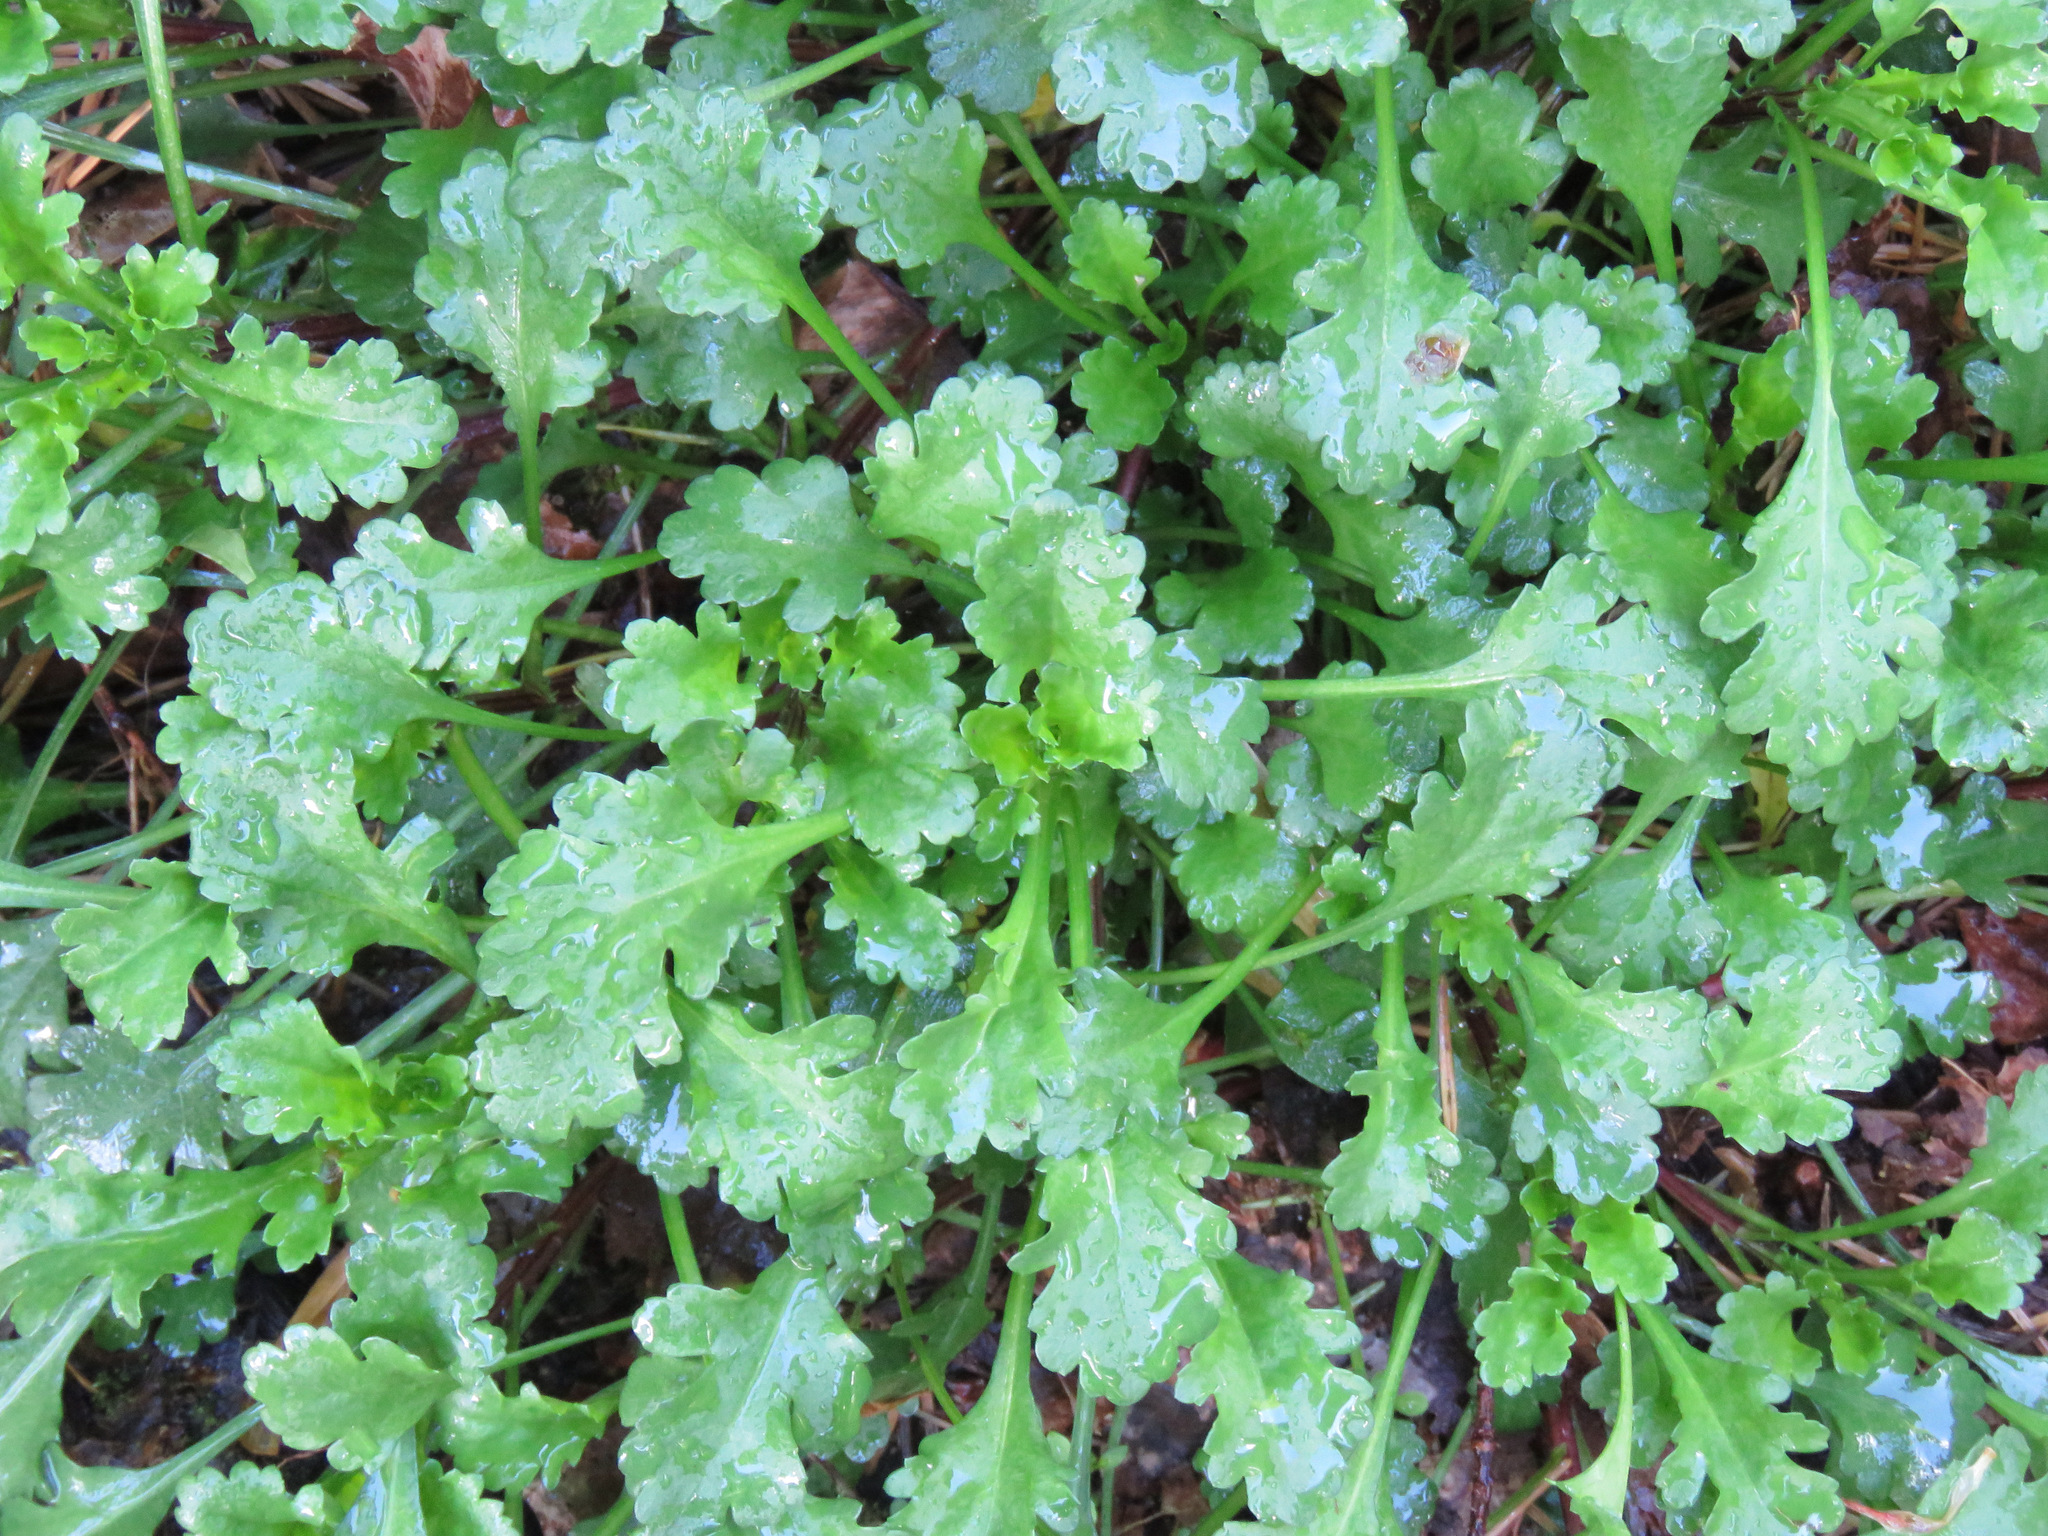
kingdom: Plantae
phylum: Tracheophyta
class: Magnoliopsida
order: Asterales
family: Asteraceae
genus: Leucanthemum
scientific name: Leucanthemum vulgare
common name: Oxeye daisy
